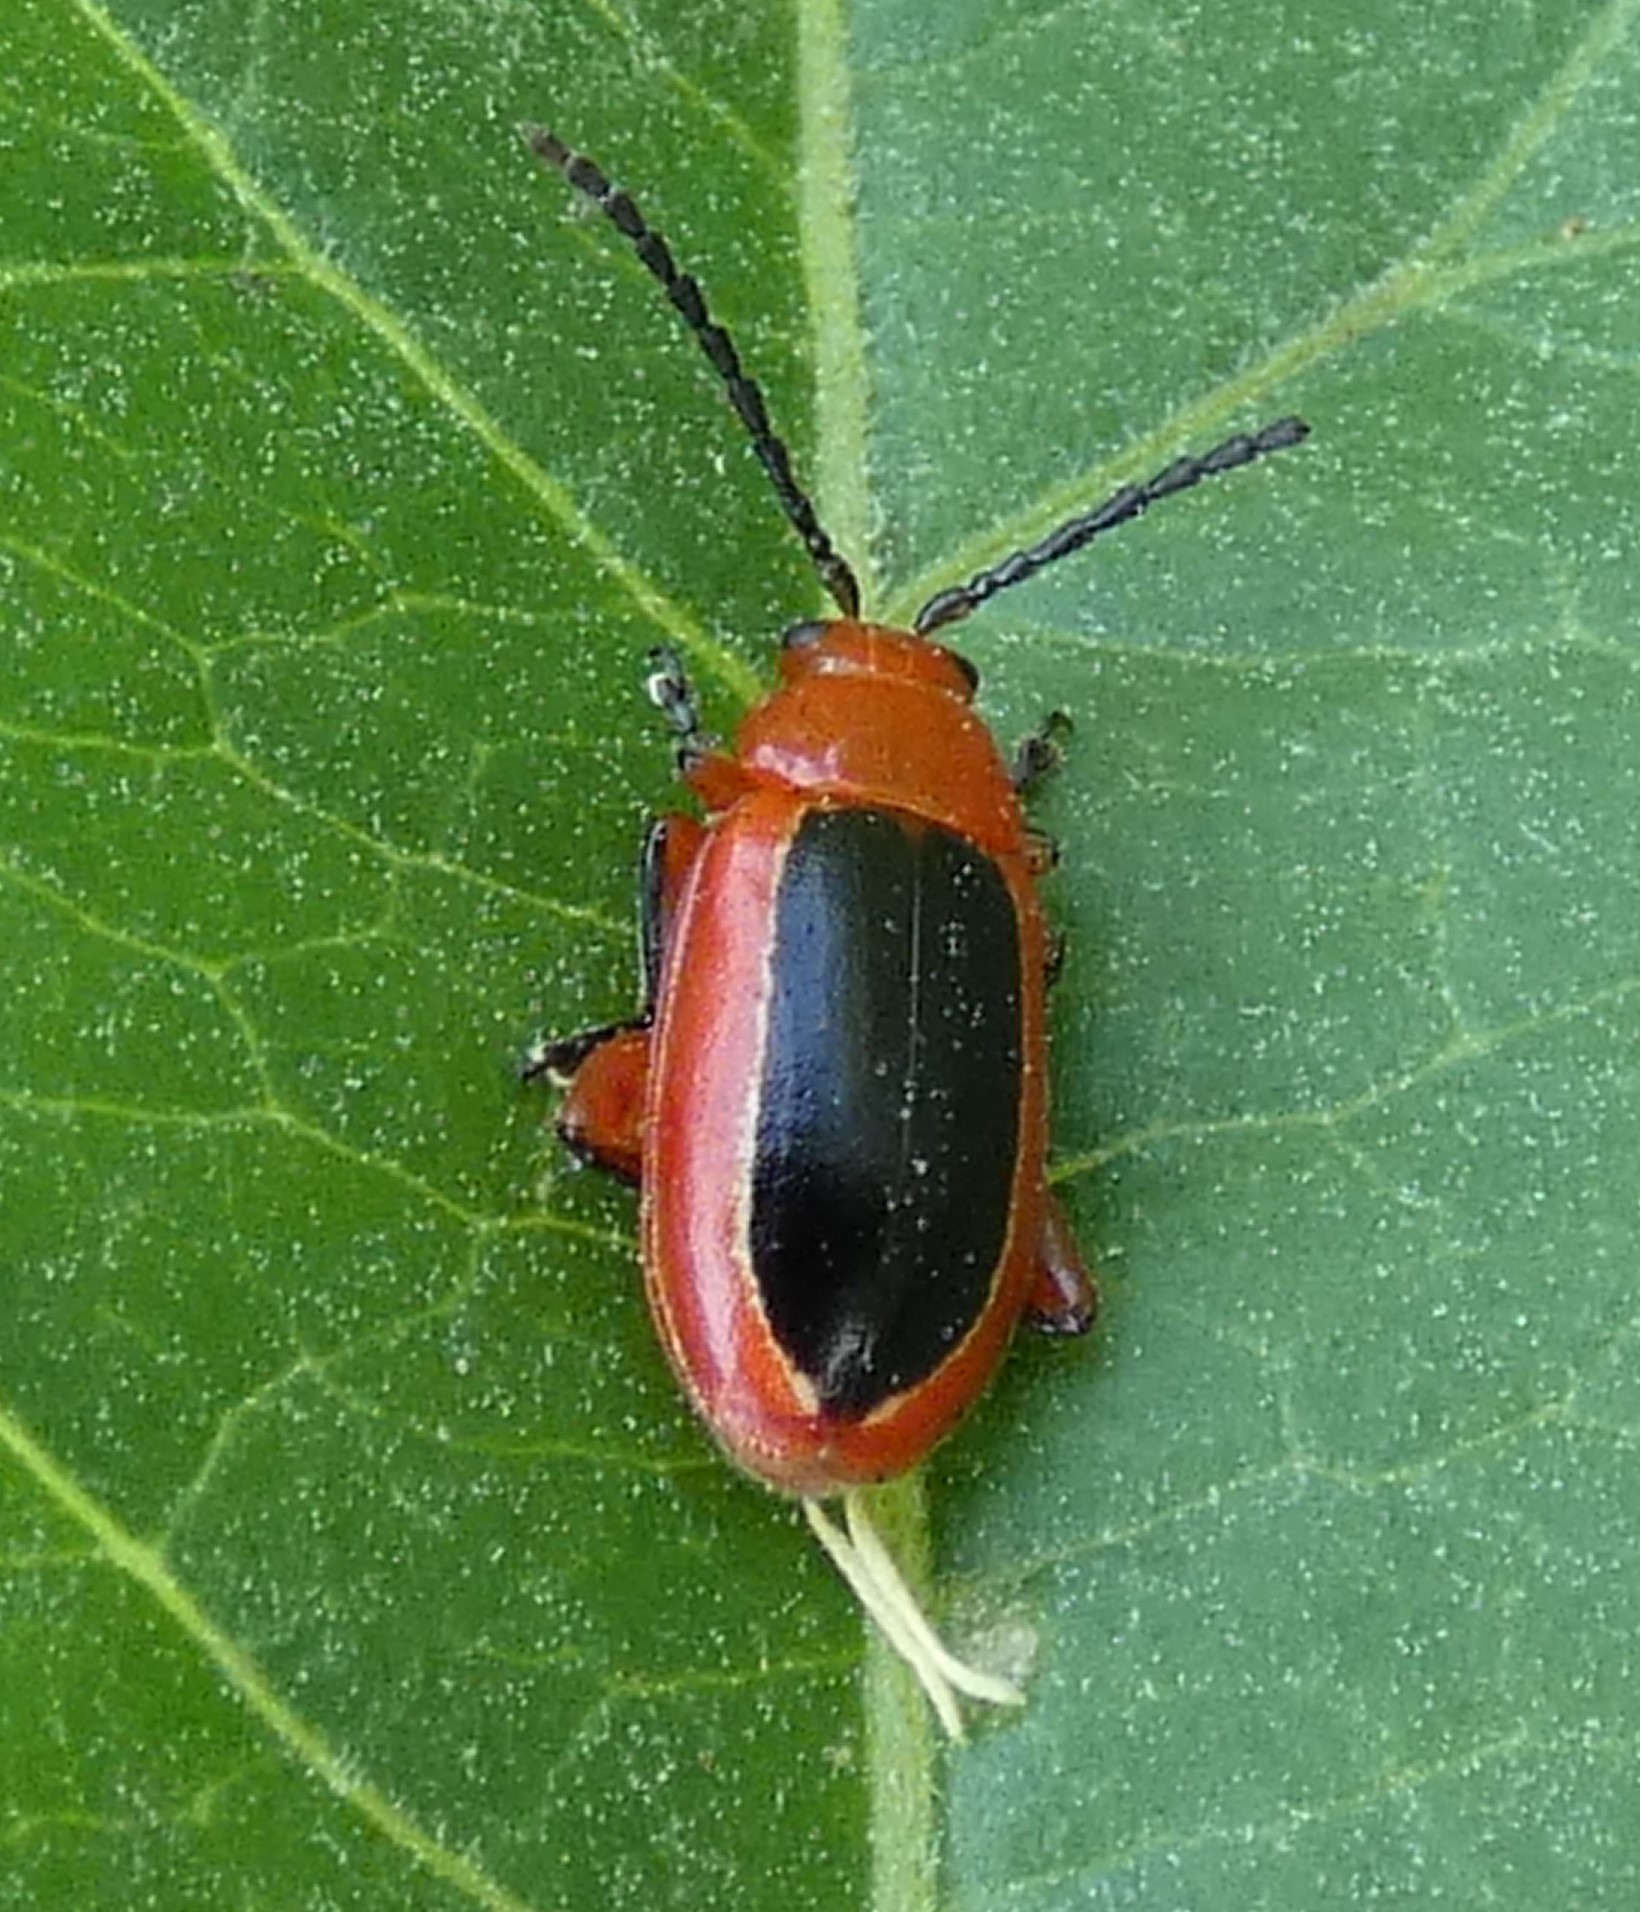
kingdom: Animalia
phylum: Arthropoda
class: Insecta
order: Coleoptera
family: Chrysomelidae
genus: Disonycha
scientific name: Disonycha discoidea
